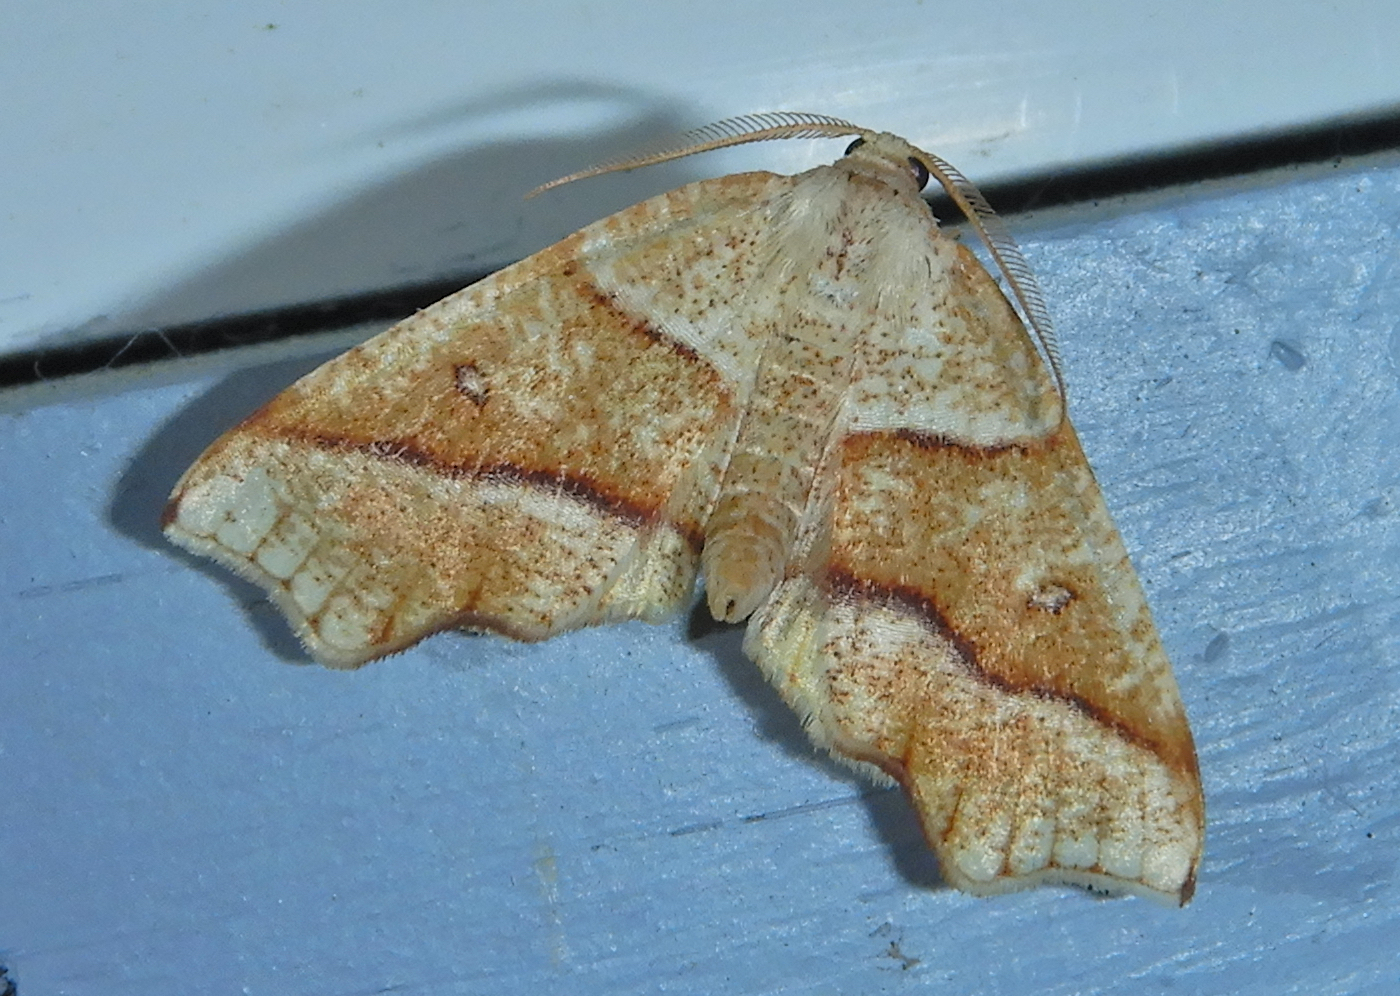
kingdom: Animalia
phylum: Arthropoda
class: Insecta
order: Lepidoptera
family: Geometridae
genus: Plagodis
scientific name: Plagodis alcoolaria
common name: Hollow-spotted plagodis
